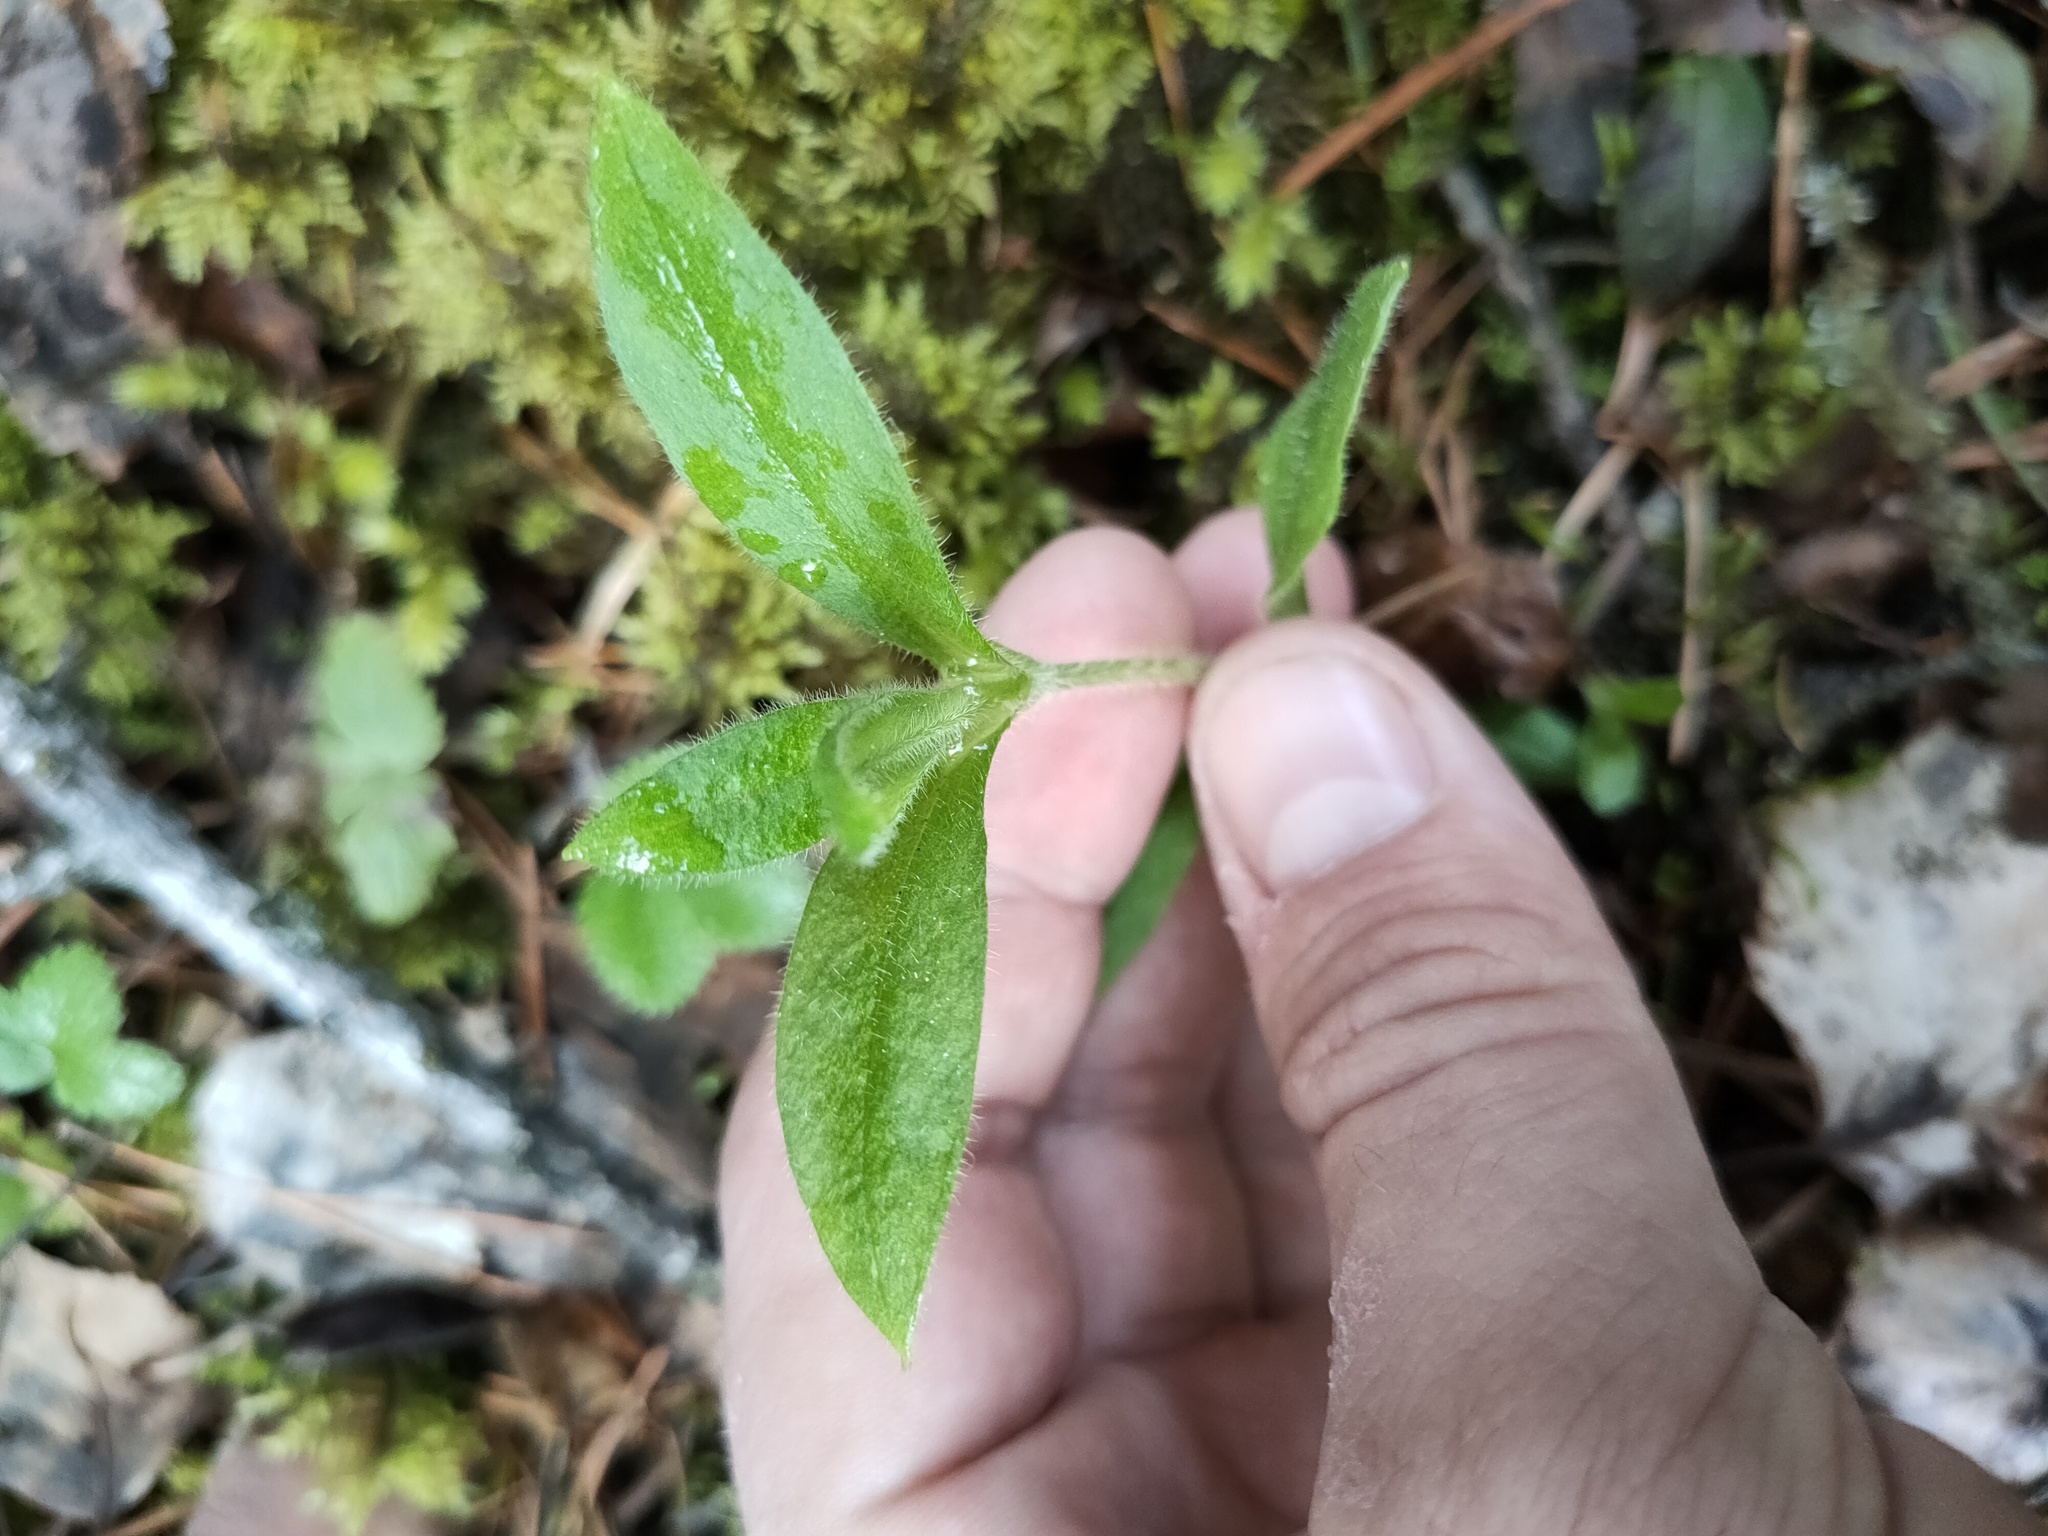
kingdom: Plantae
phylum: Tracheophyta
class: Magnoliopsida
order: Caryophyllales
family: Caryophyllaceae
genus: Cerastium
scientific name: Cerastium pauciflorum
